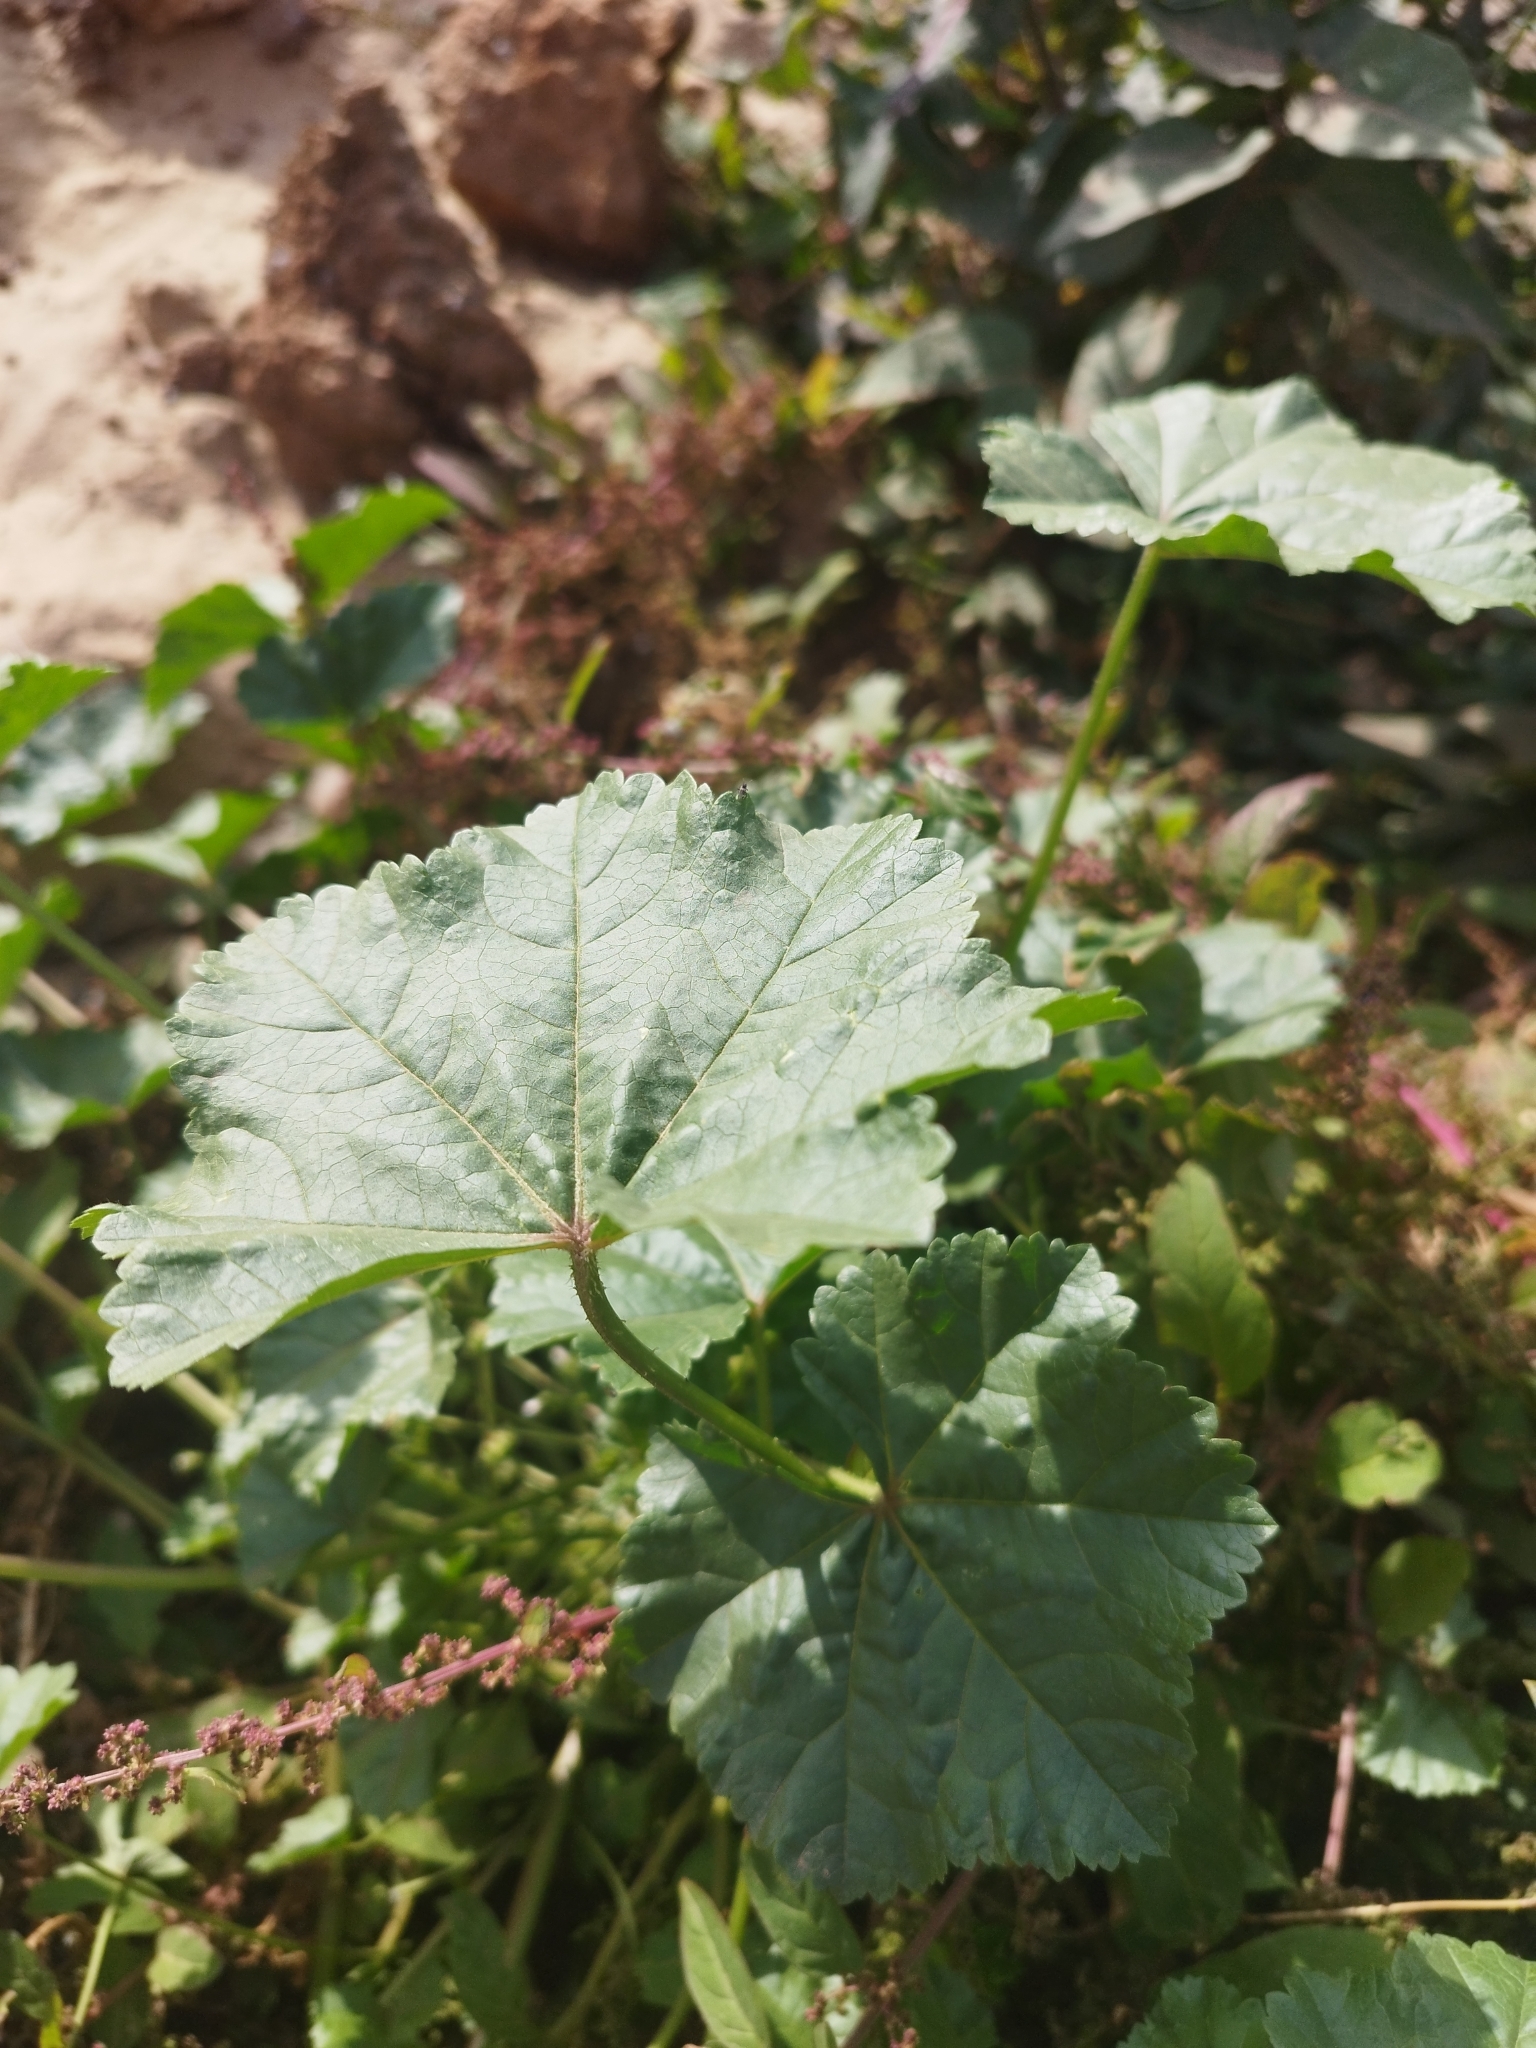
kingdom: Plantae
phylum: Tracheophyta
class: Magnoliopsida
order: Malvales
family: Malvaceae
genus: Malva
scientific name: Malva pusilla
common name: Small mallow
